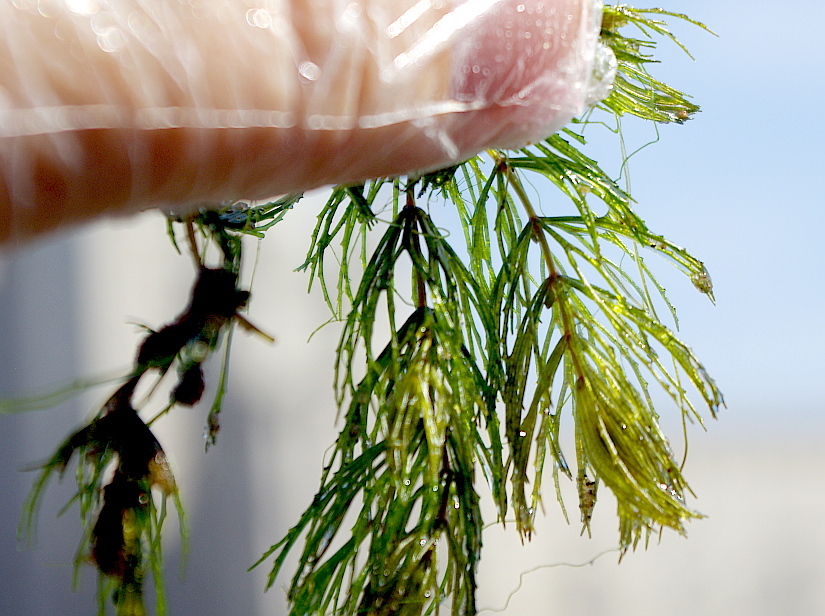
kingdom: Plantae
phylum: Tracheophyta
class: Magnoliopsida
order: Ceratophyllales
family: Ceratophyllaceae
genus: Ceratophyllum
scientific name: Ceratophyllum demersum
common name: Rigid hornwort
